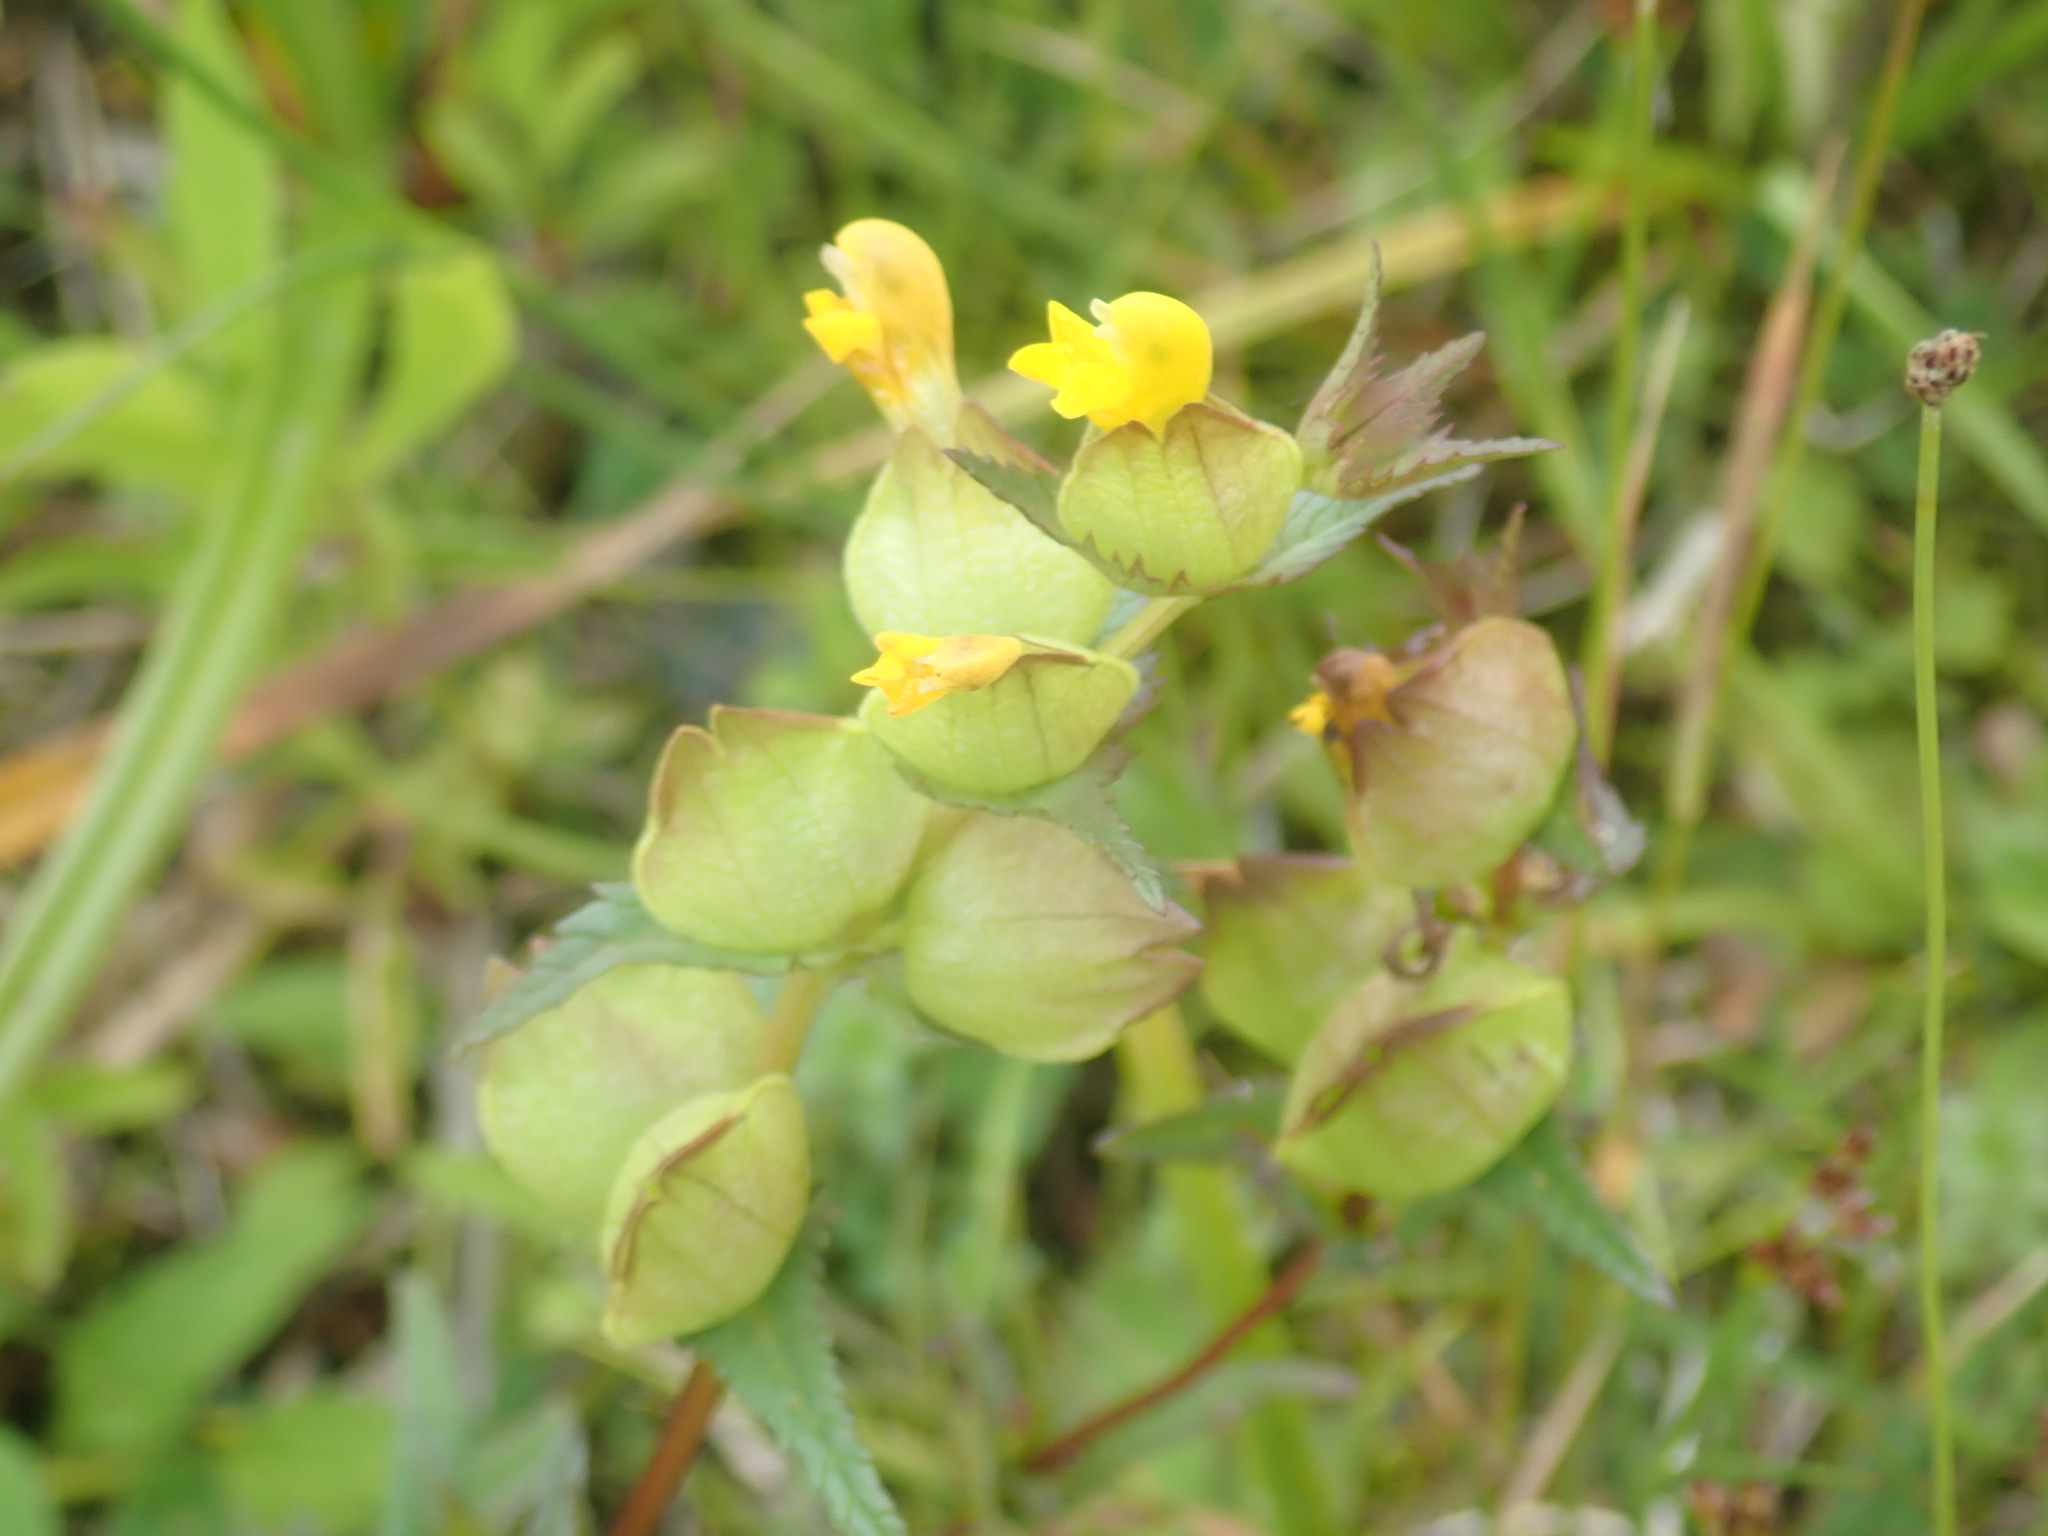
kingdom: Plantae
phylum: Tracheophyta
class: Magnoliopsida
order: Lamiales
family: Orobanchaceae
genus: Rhinanthus
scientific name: Rhinanthus minor
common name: Yellow-rattle
